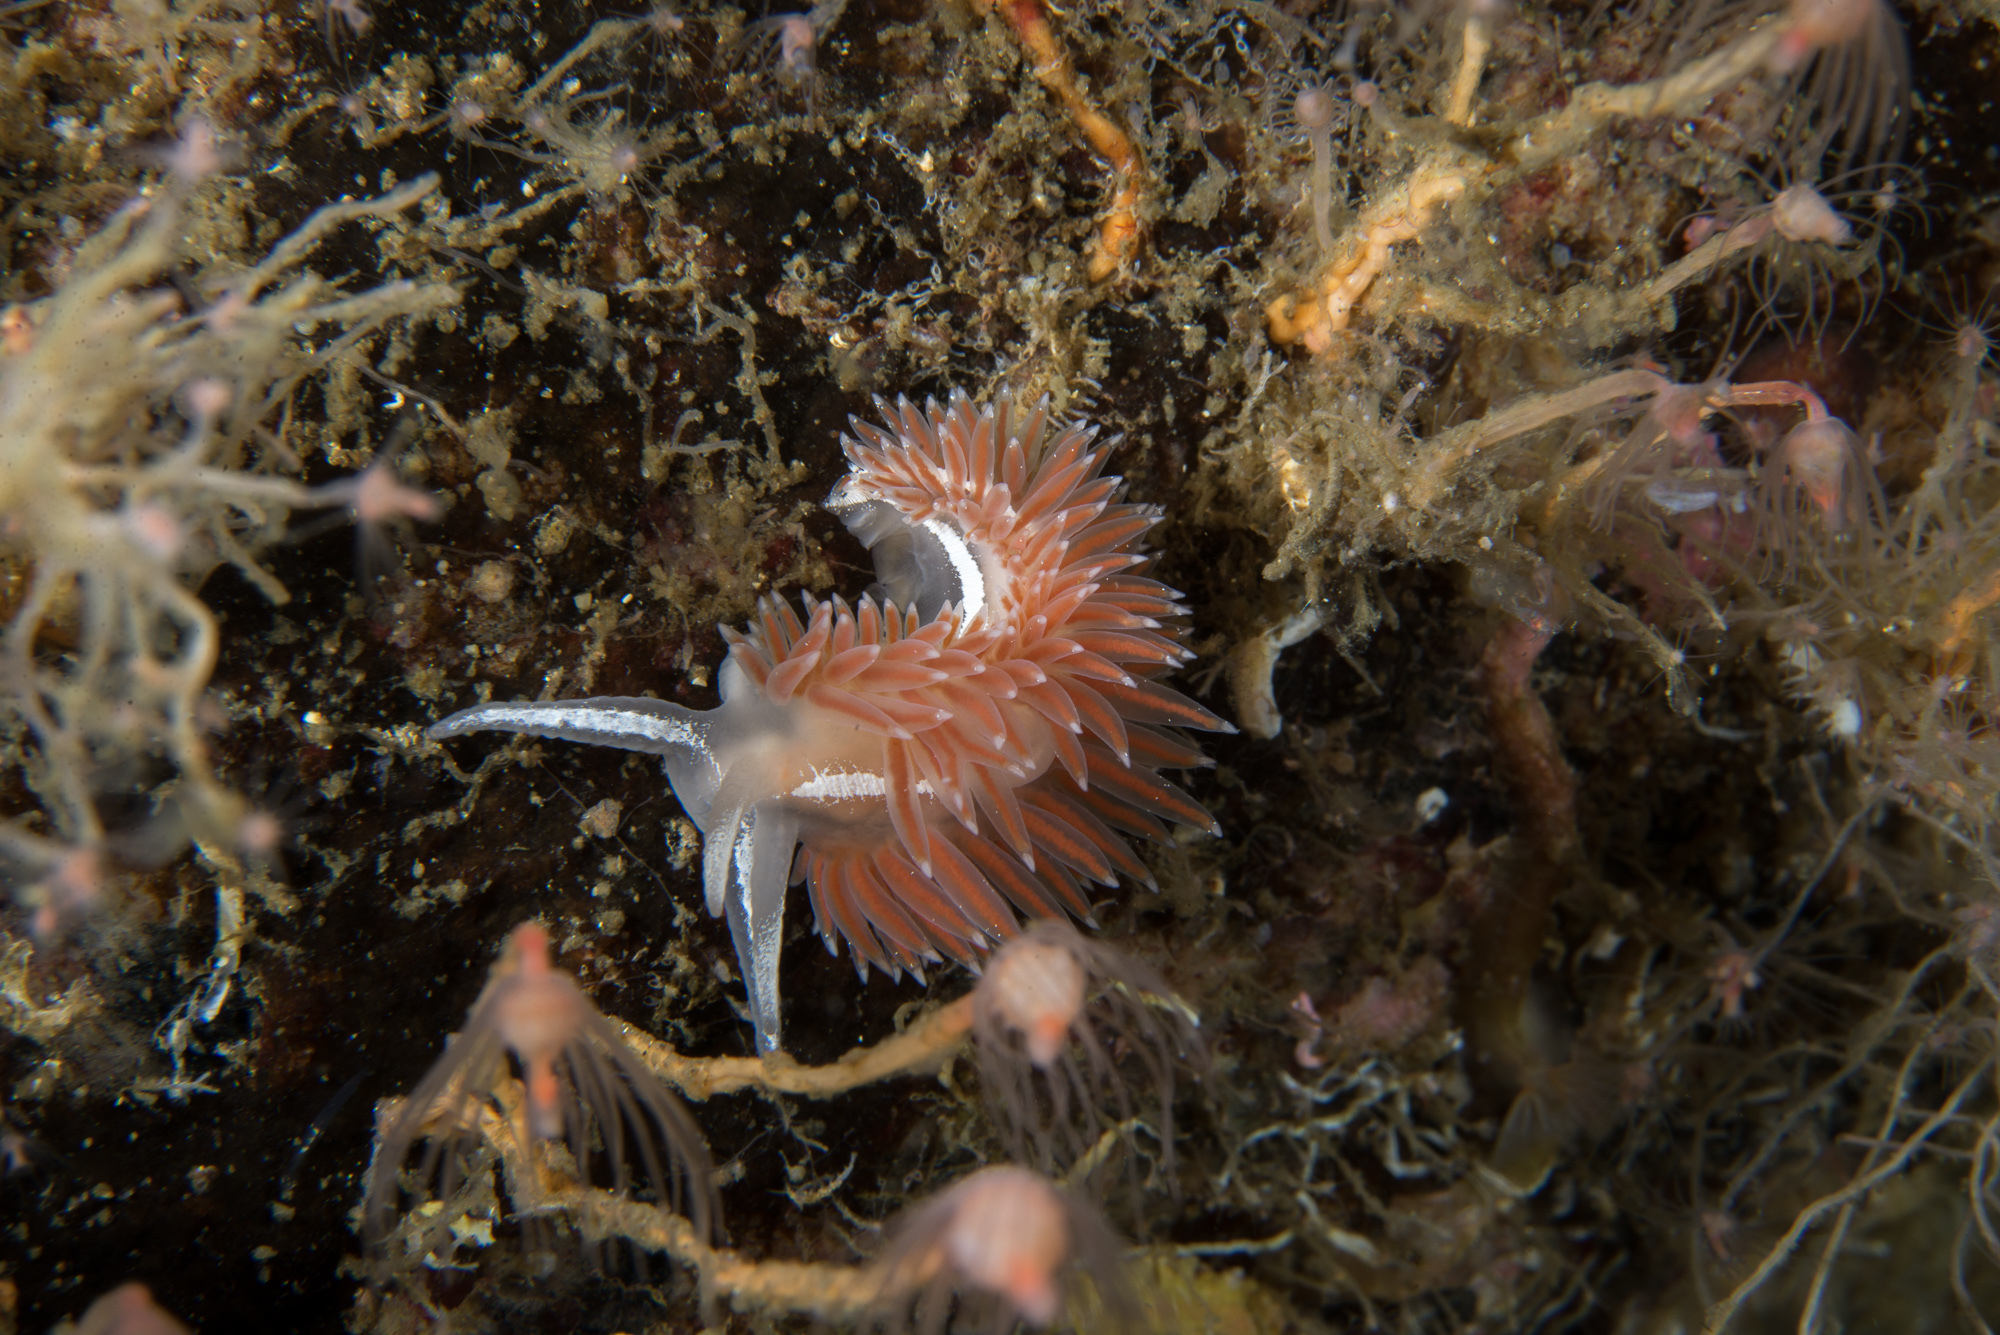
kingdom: Animalia
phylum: Mollusca
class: Gastropoda
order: Nudibranchia
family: Coryphellidae
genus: Coryphella
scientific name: Coryphella monicae
